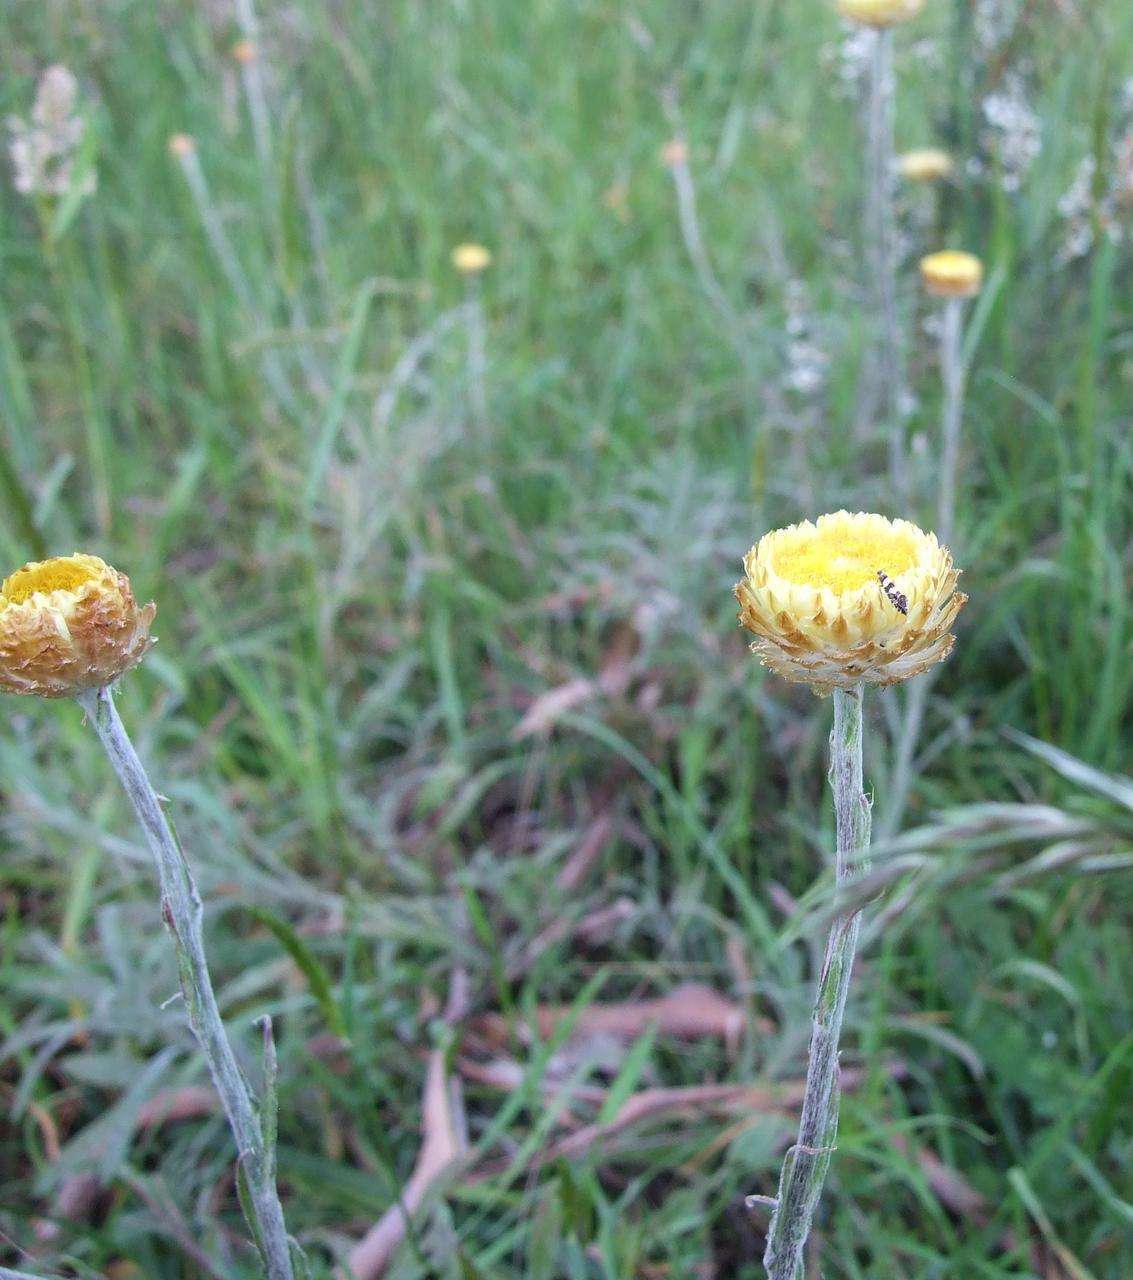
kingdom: Animalia
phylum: Arthropoda
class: Insecta
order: Lepidoptera
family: Glyphipterigidae
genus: Glyphipterix
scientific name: Glyphipterix meteora
